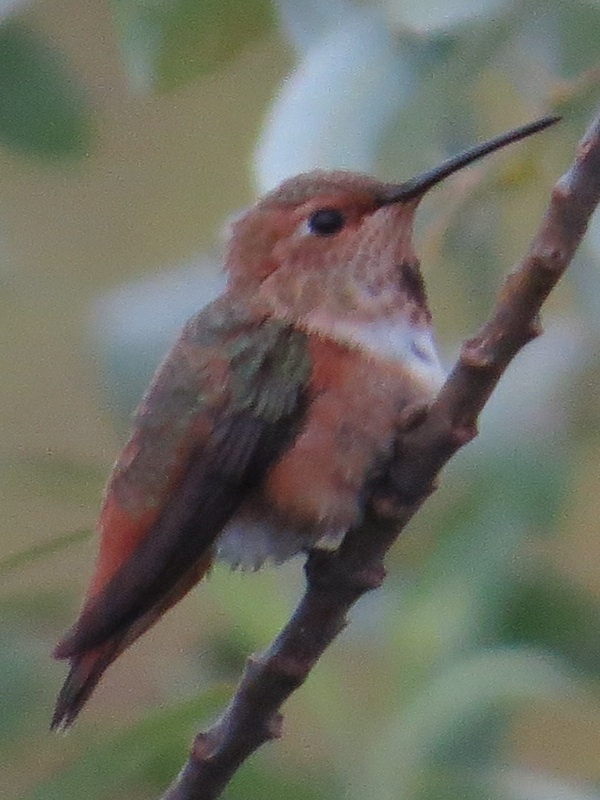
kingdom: Animalia
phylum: Chordata
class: Aves
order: Apodiformes
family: Trochilidae
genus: Selasphorus
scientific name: Selasphorus sasin
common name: Allen's hummingbird
